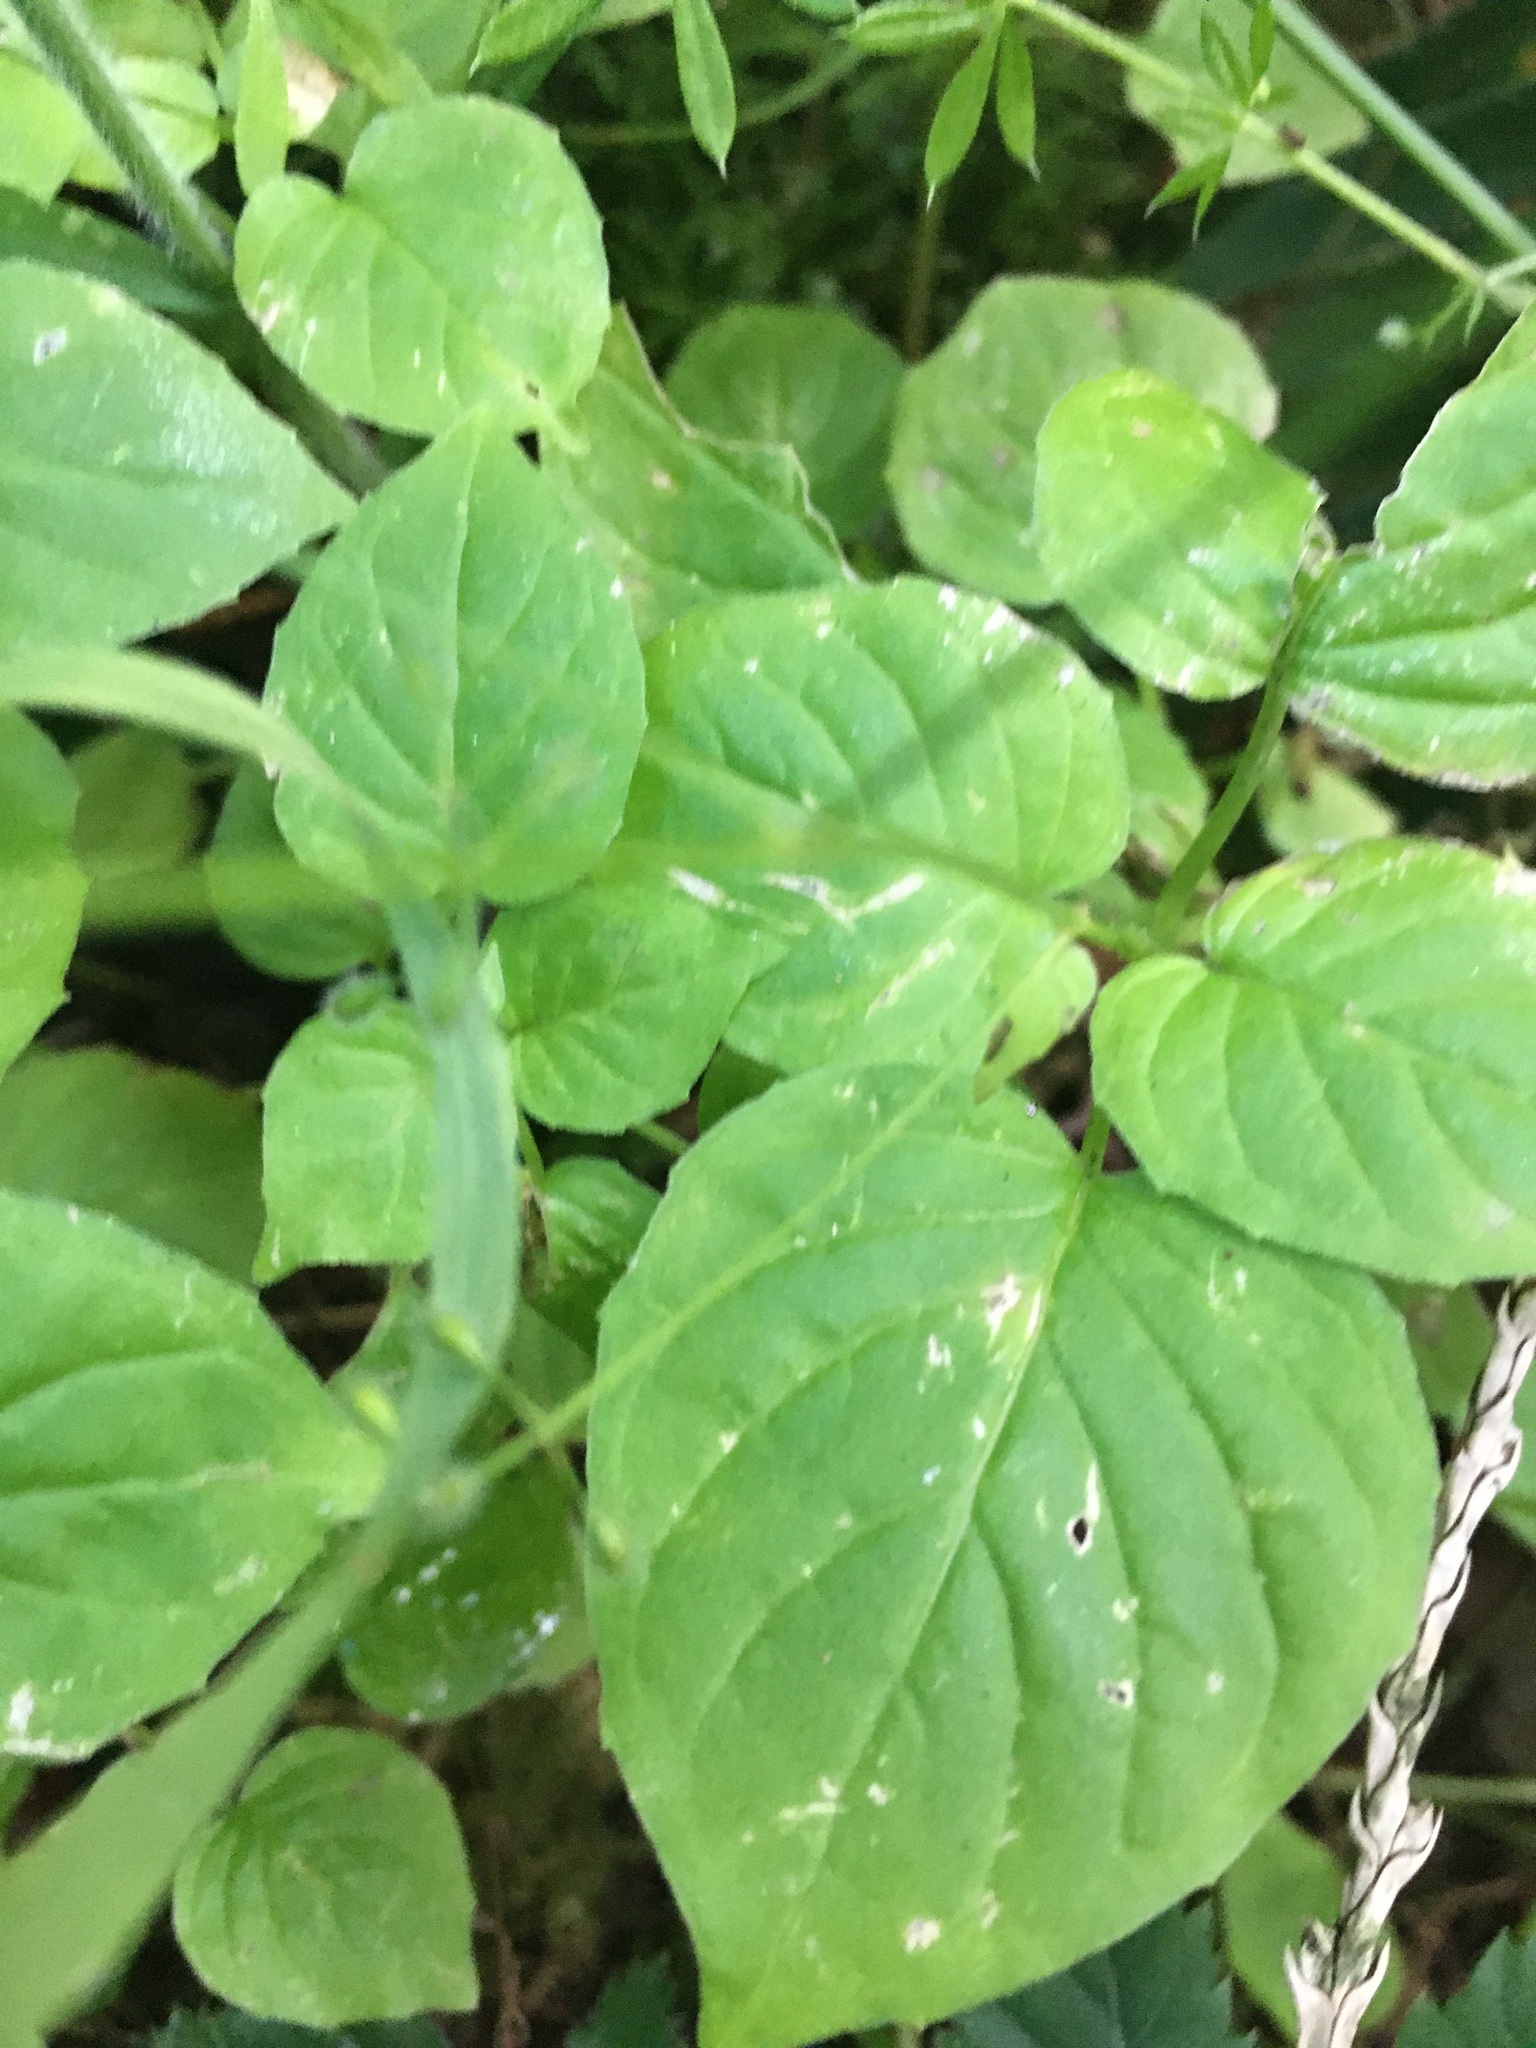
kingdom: Plantae
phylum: Tracheophyta
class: Magnoliopsida
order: Myrtales
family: Onagraceae
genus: Circaea
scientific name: Circaea alpina
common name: Alpine enchanter's-nightshade
